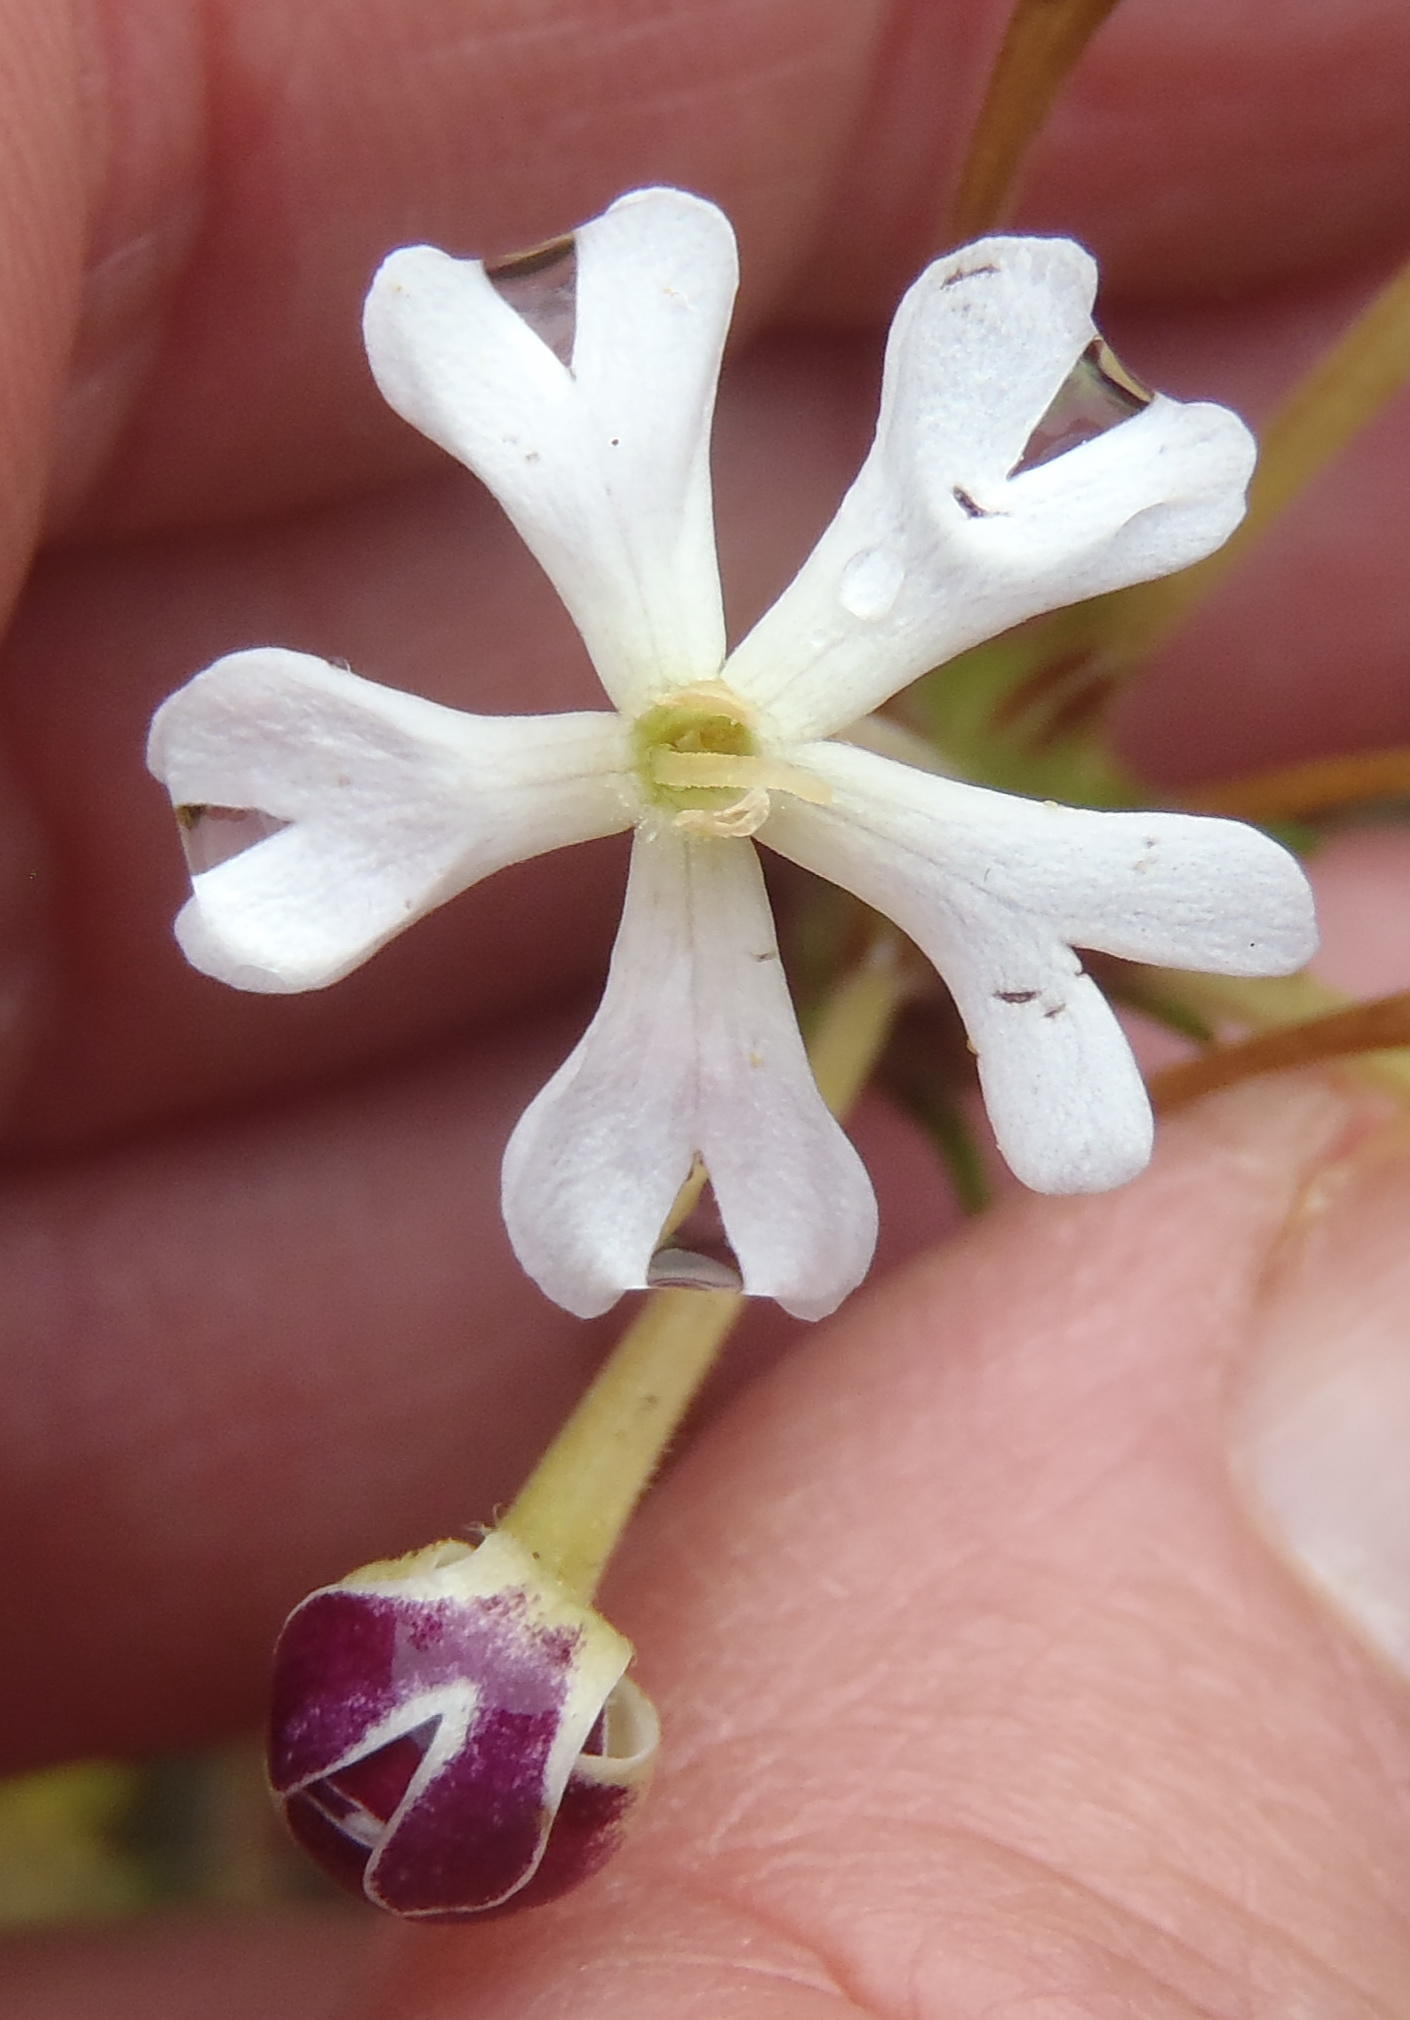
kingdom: Plantae
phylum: Tracheophyta
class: Magnoliopsida
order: Lamiales
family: Scrophulariaceae
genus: Zaluzianskya
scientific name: Zaluzianskya capensis
